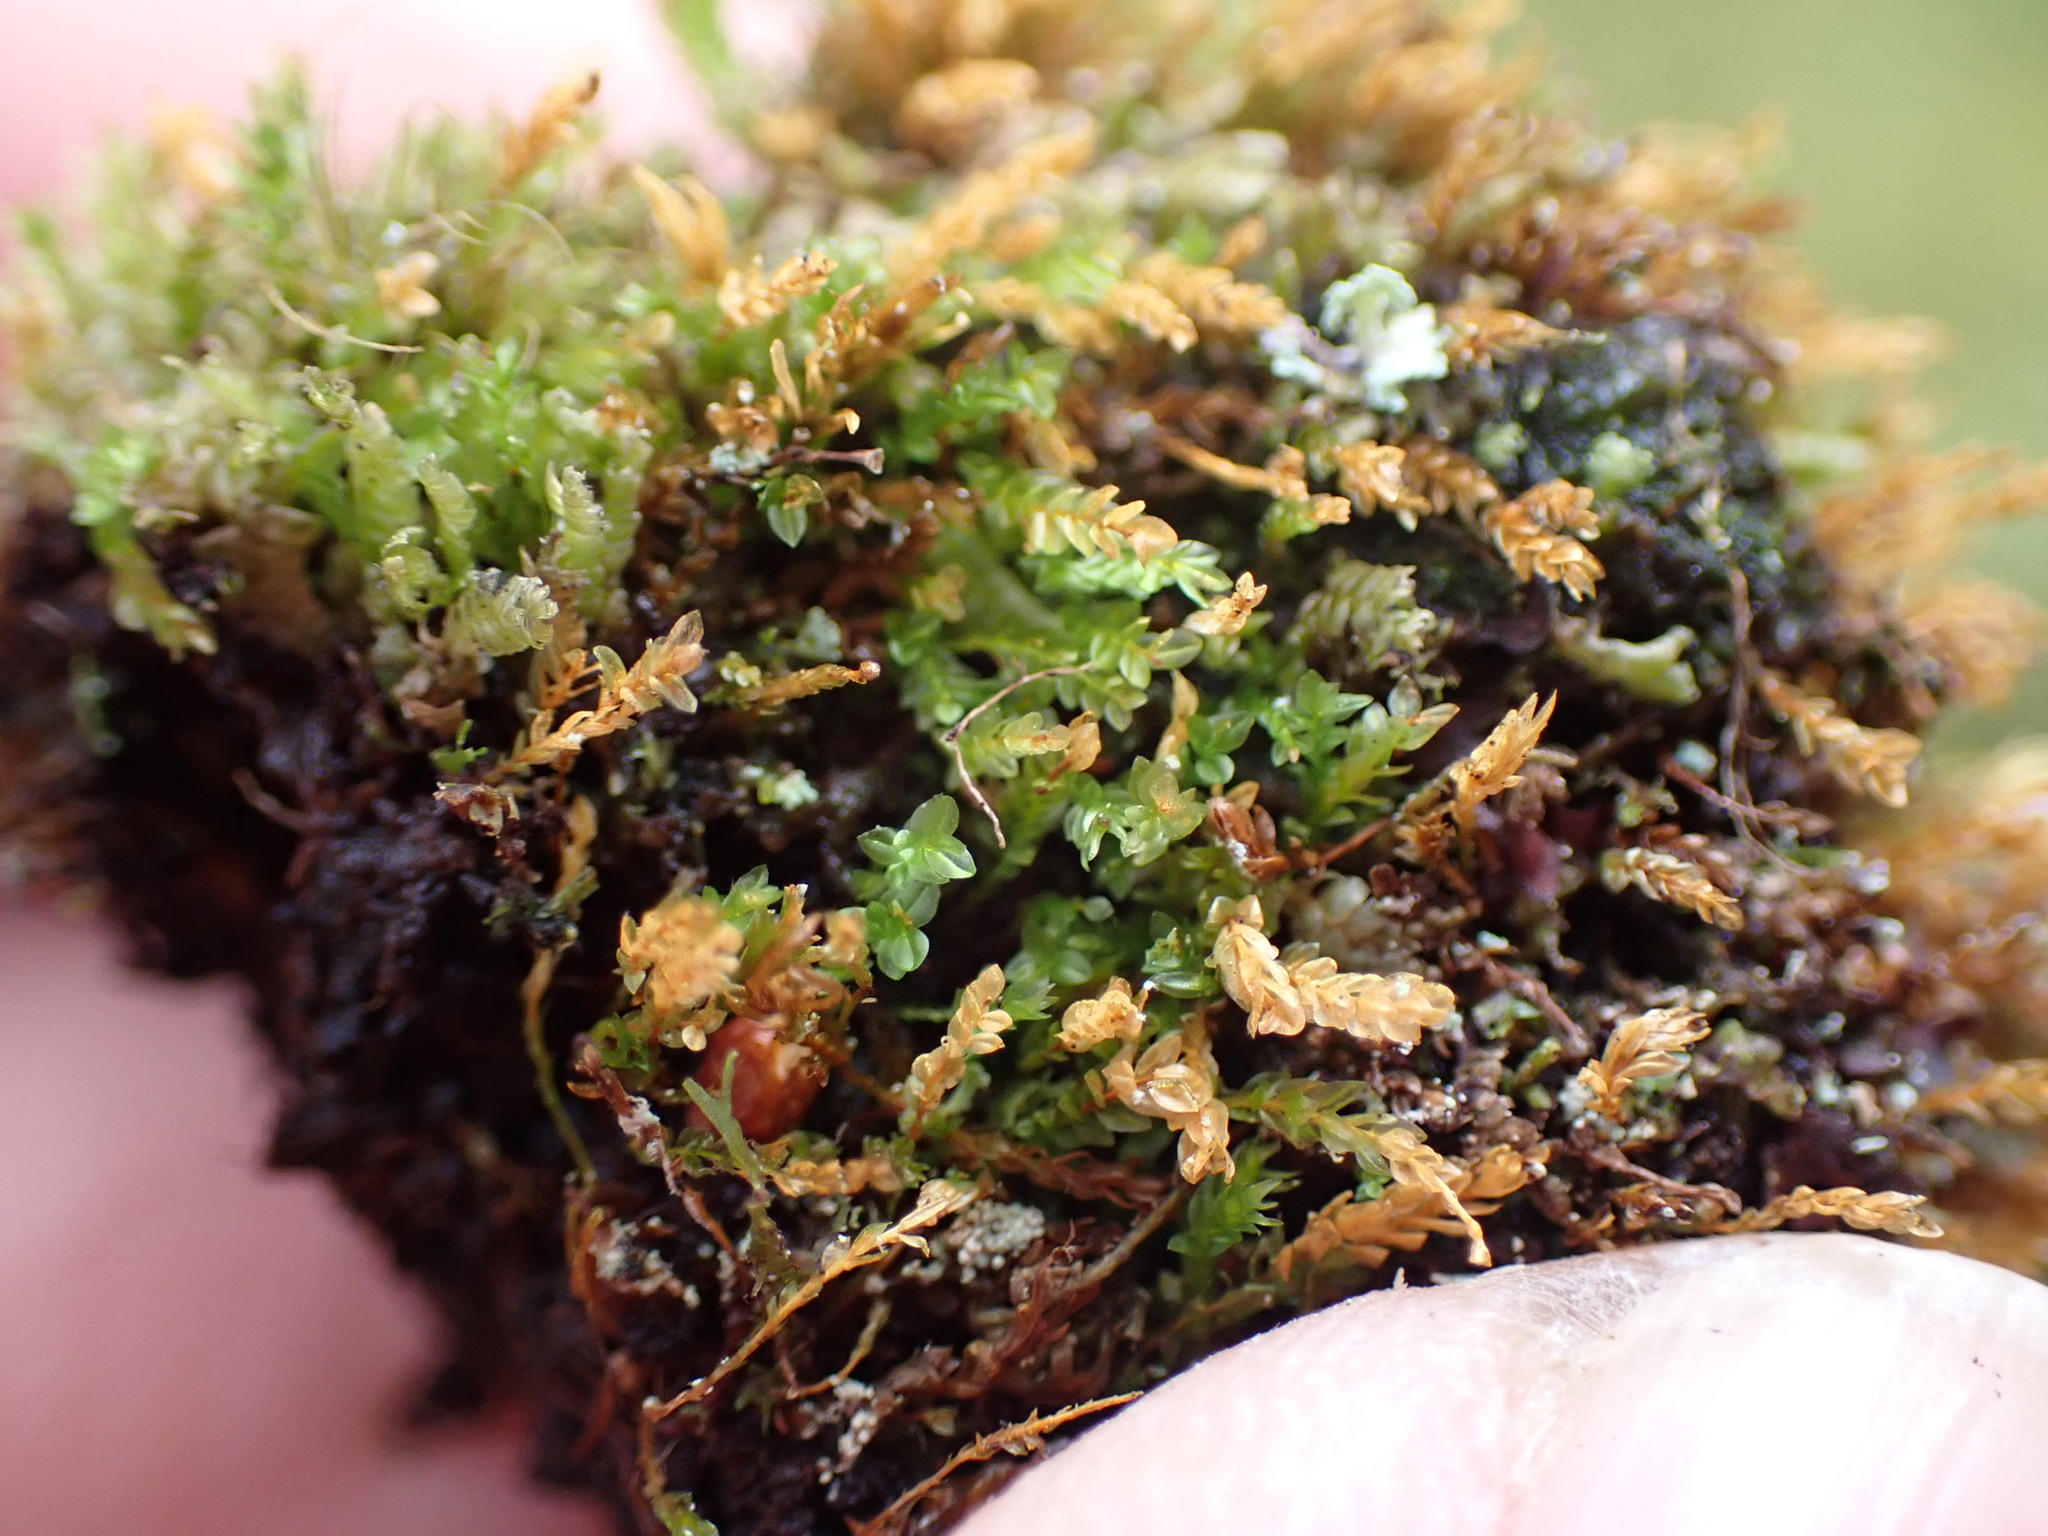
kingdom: Plantae
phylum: Bryophyta
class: Polytrichopsida
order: Tetraphidales
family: Tetraphidaceae
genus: Tetraphis
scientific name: Tetraphis pellucida
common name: Common four-toothed moss
